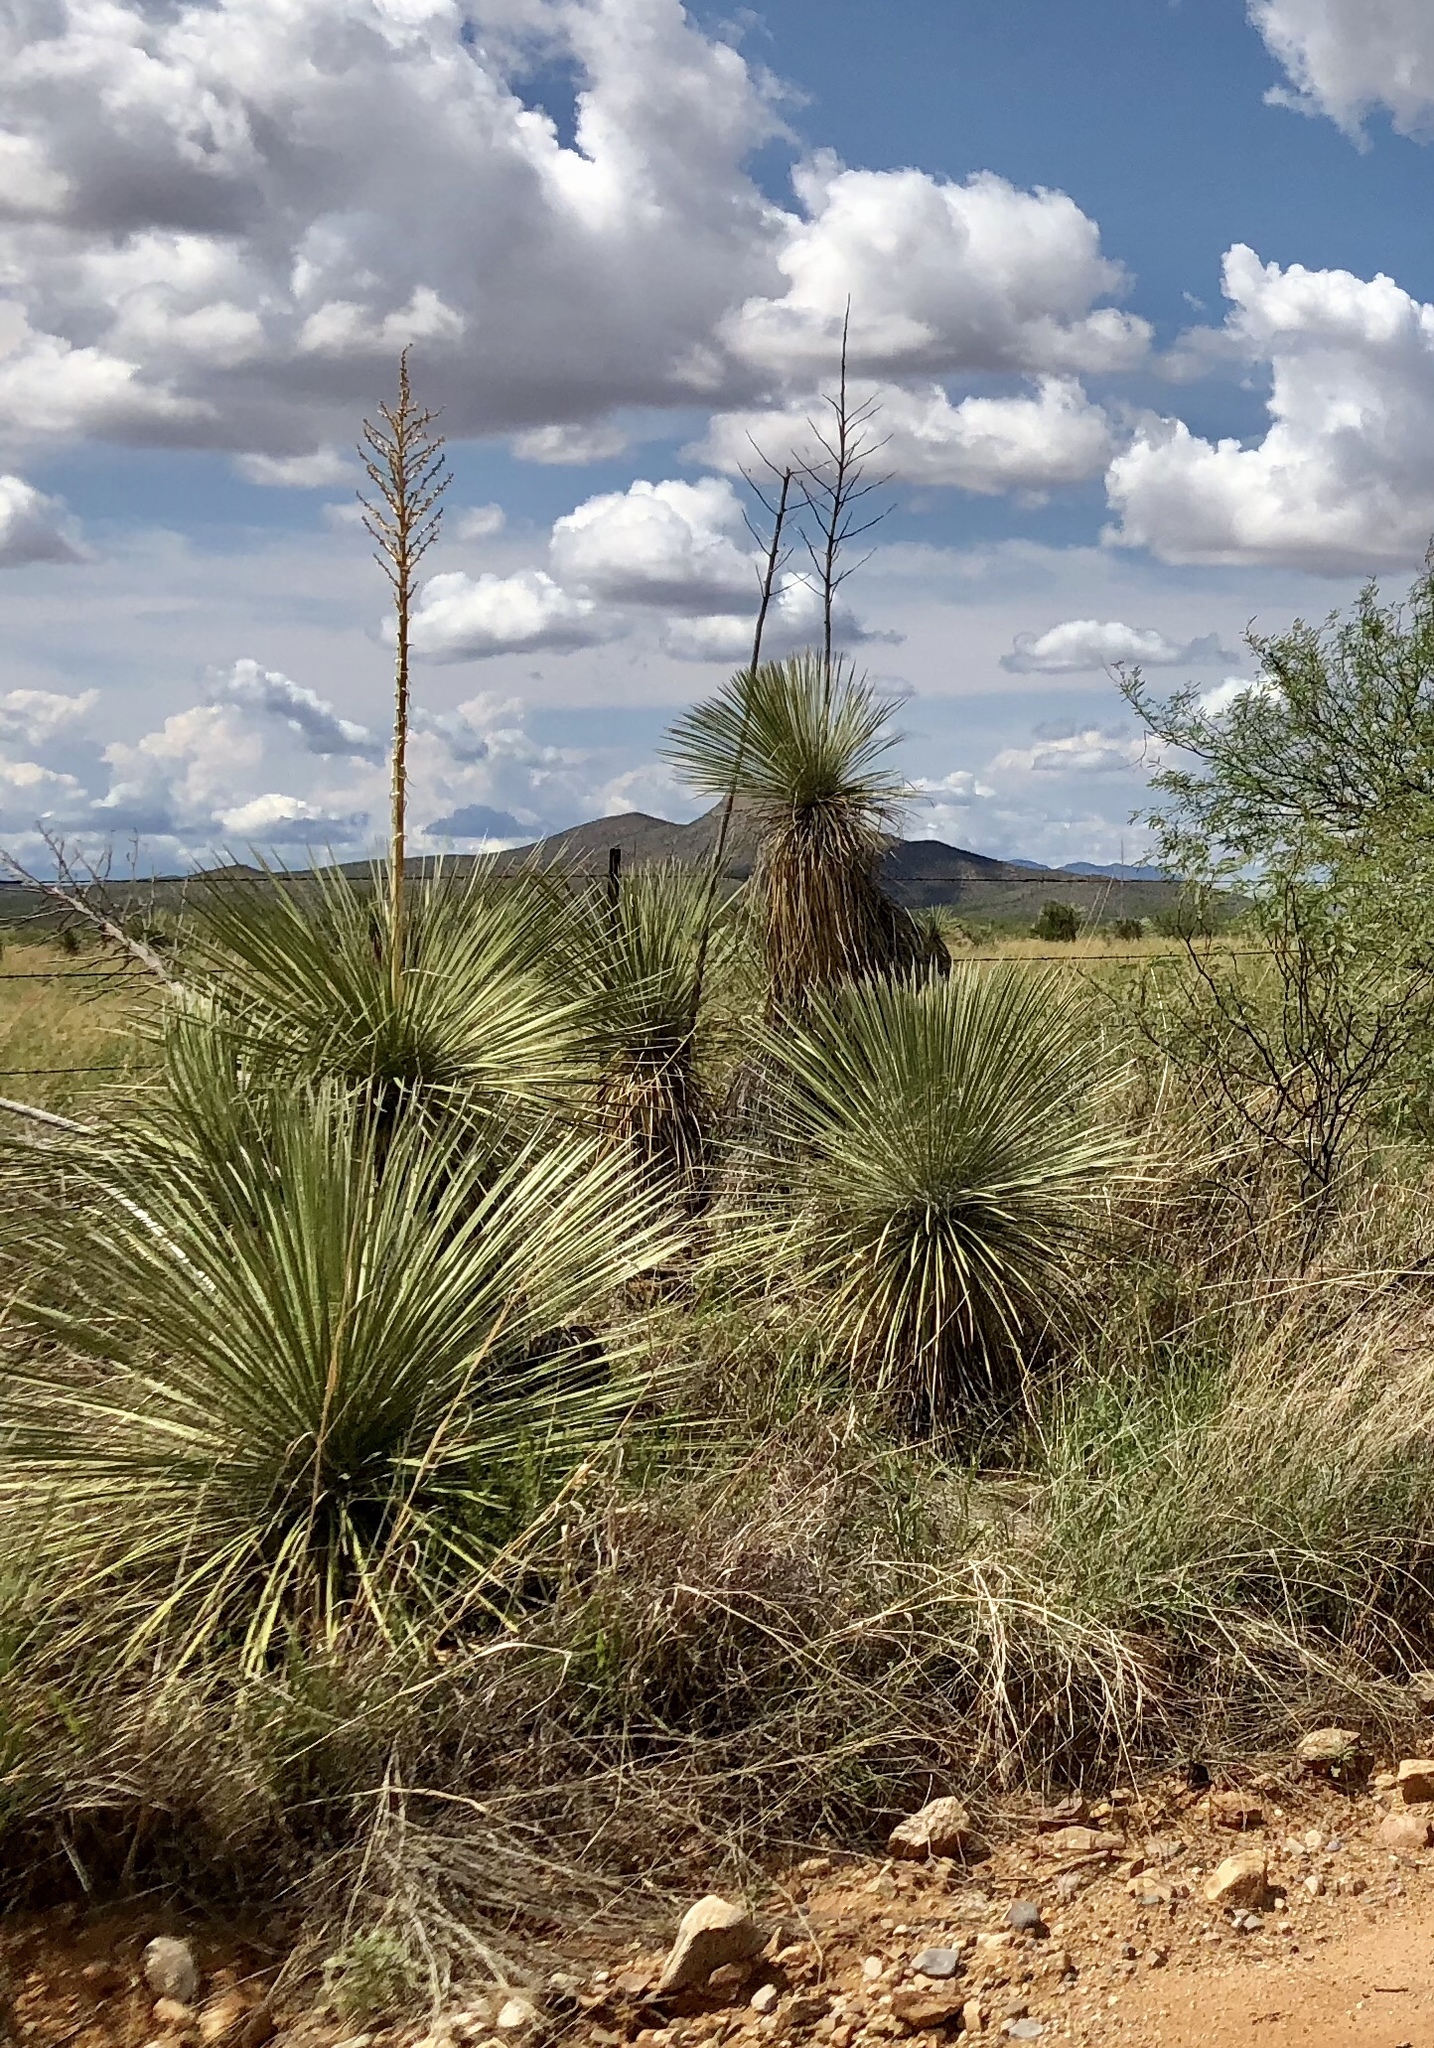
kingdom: Plantae
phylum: Tracheophyta
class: Liliopsida
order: Asparagales
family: Asparagaceae
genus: Yucca
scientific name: Yucca elata
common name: Palmella
